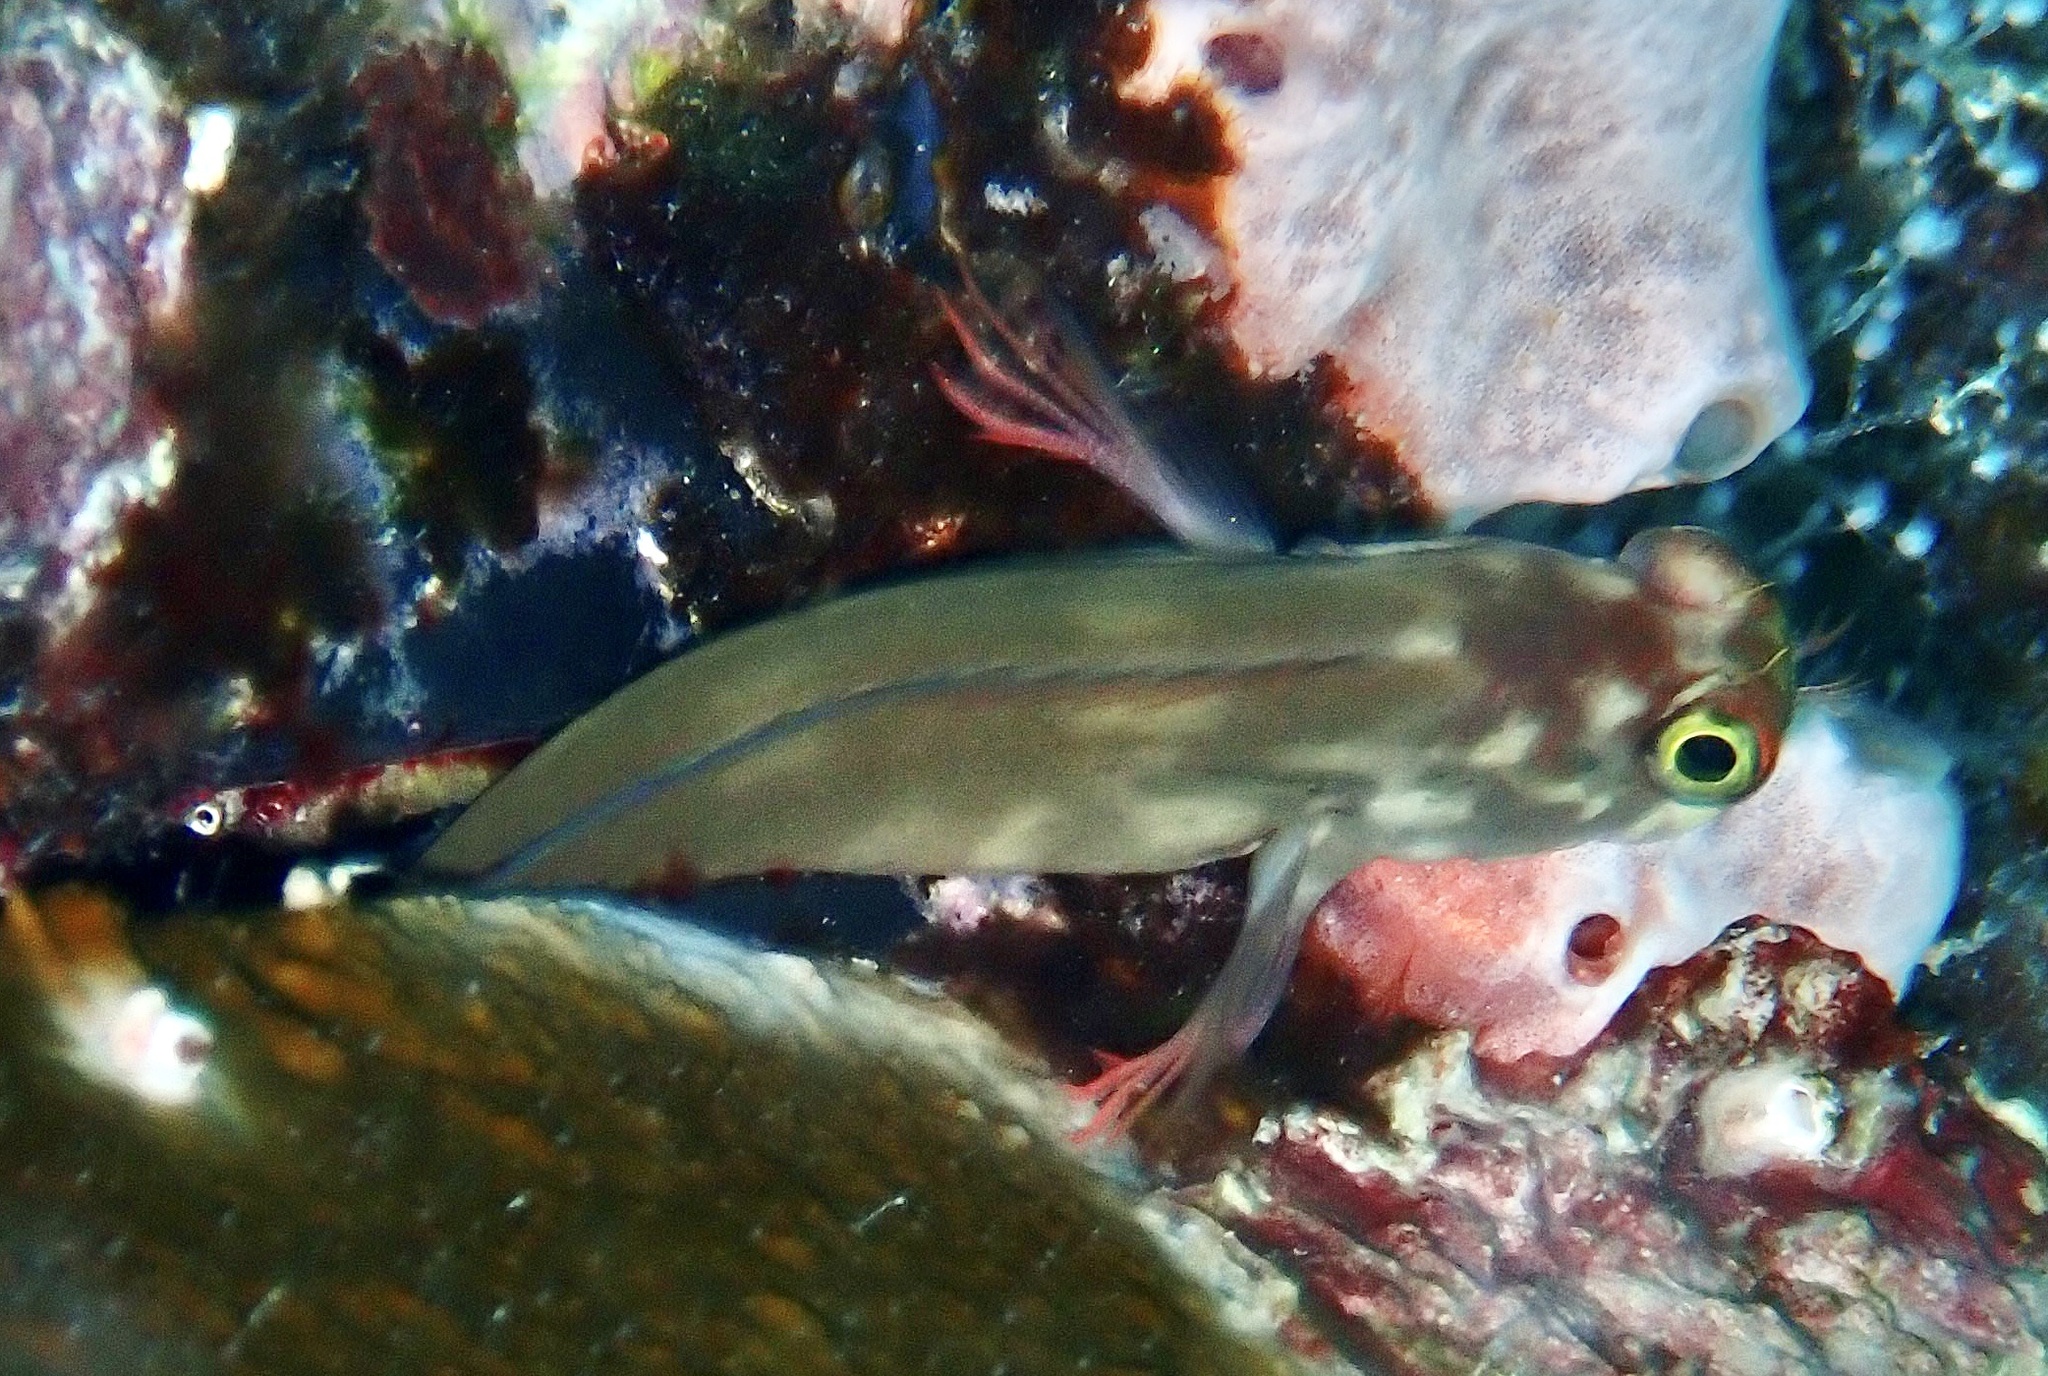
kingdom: Animalia
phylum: Chordata
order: Perciformes
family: Blenniidae
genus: Ophioblennius
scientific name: Ophioblennius macclurei
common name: Redlip blenny
